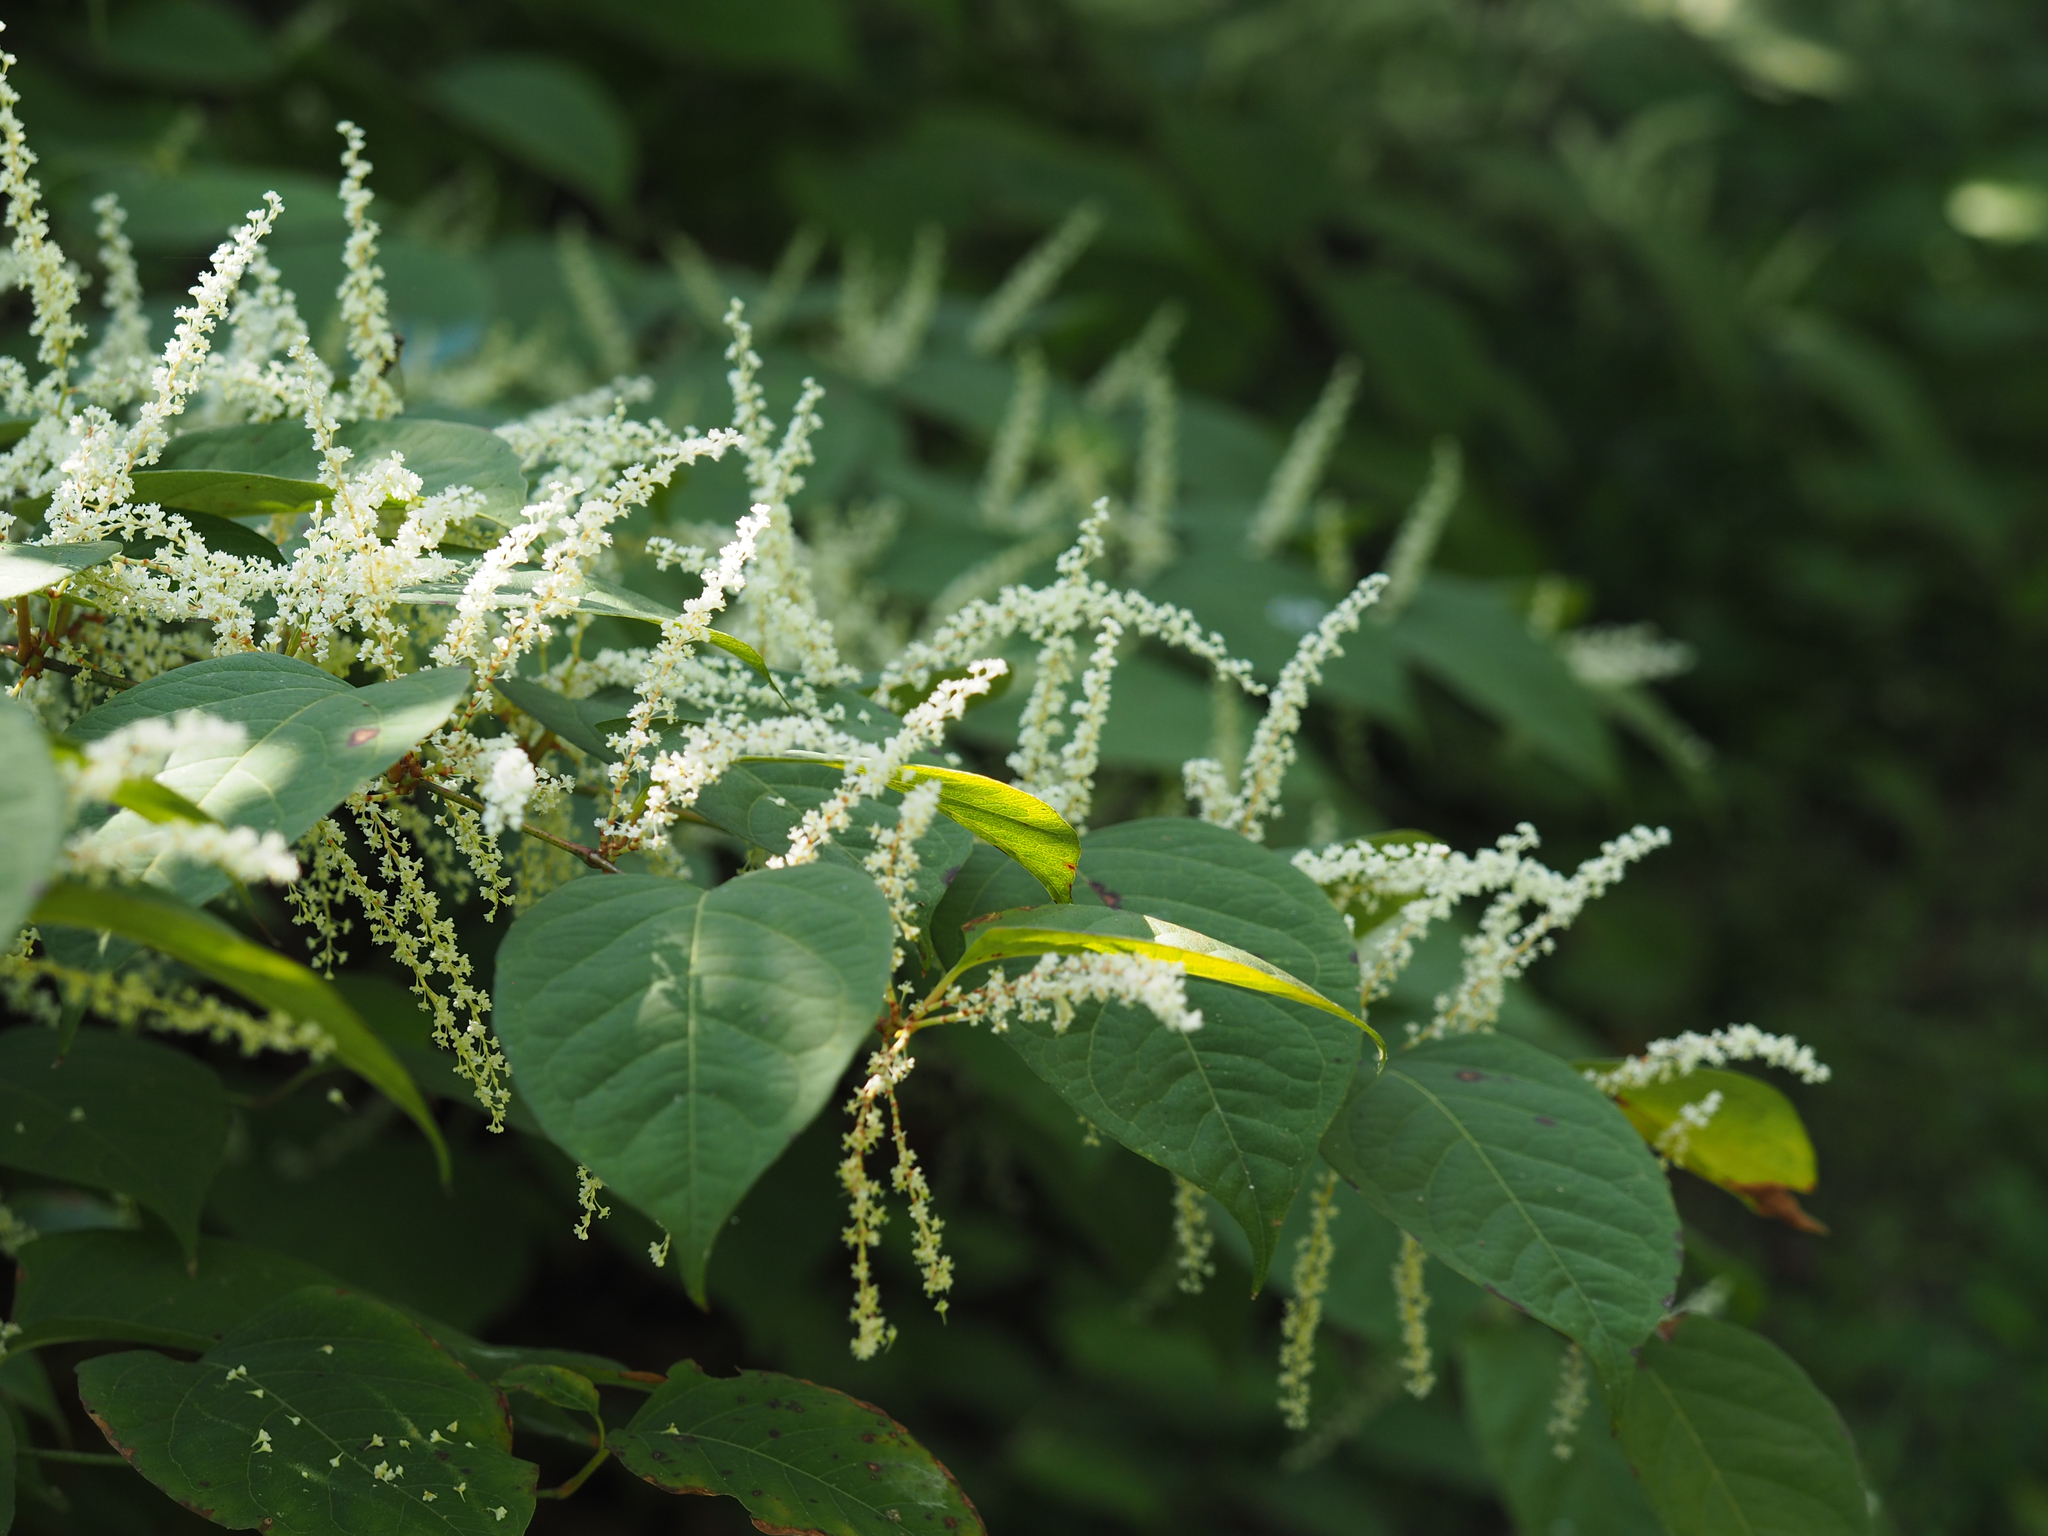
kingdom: Plantae
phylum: Tracheophyta
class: Magnoliopsida
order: Caryophyllales
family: Polygonaceae
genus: Reynoutria
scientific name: Reynoutria japonica
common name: Japanese knotweed
